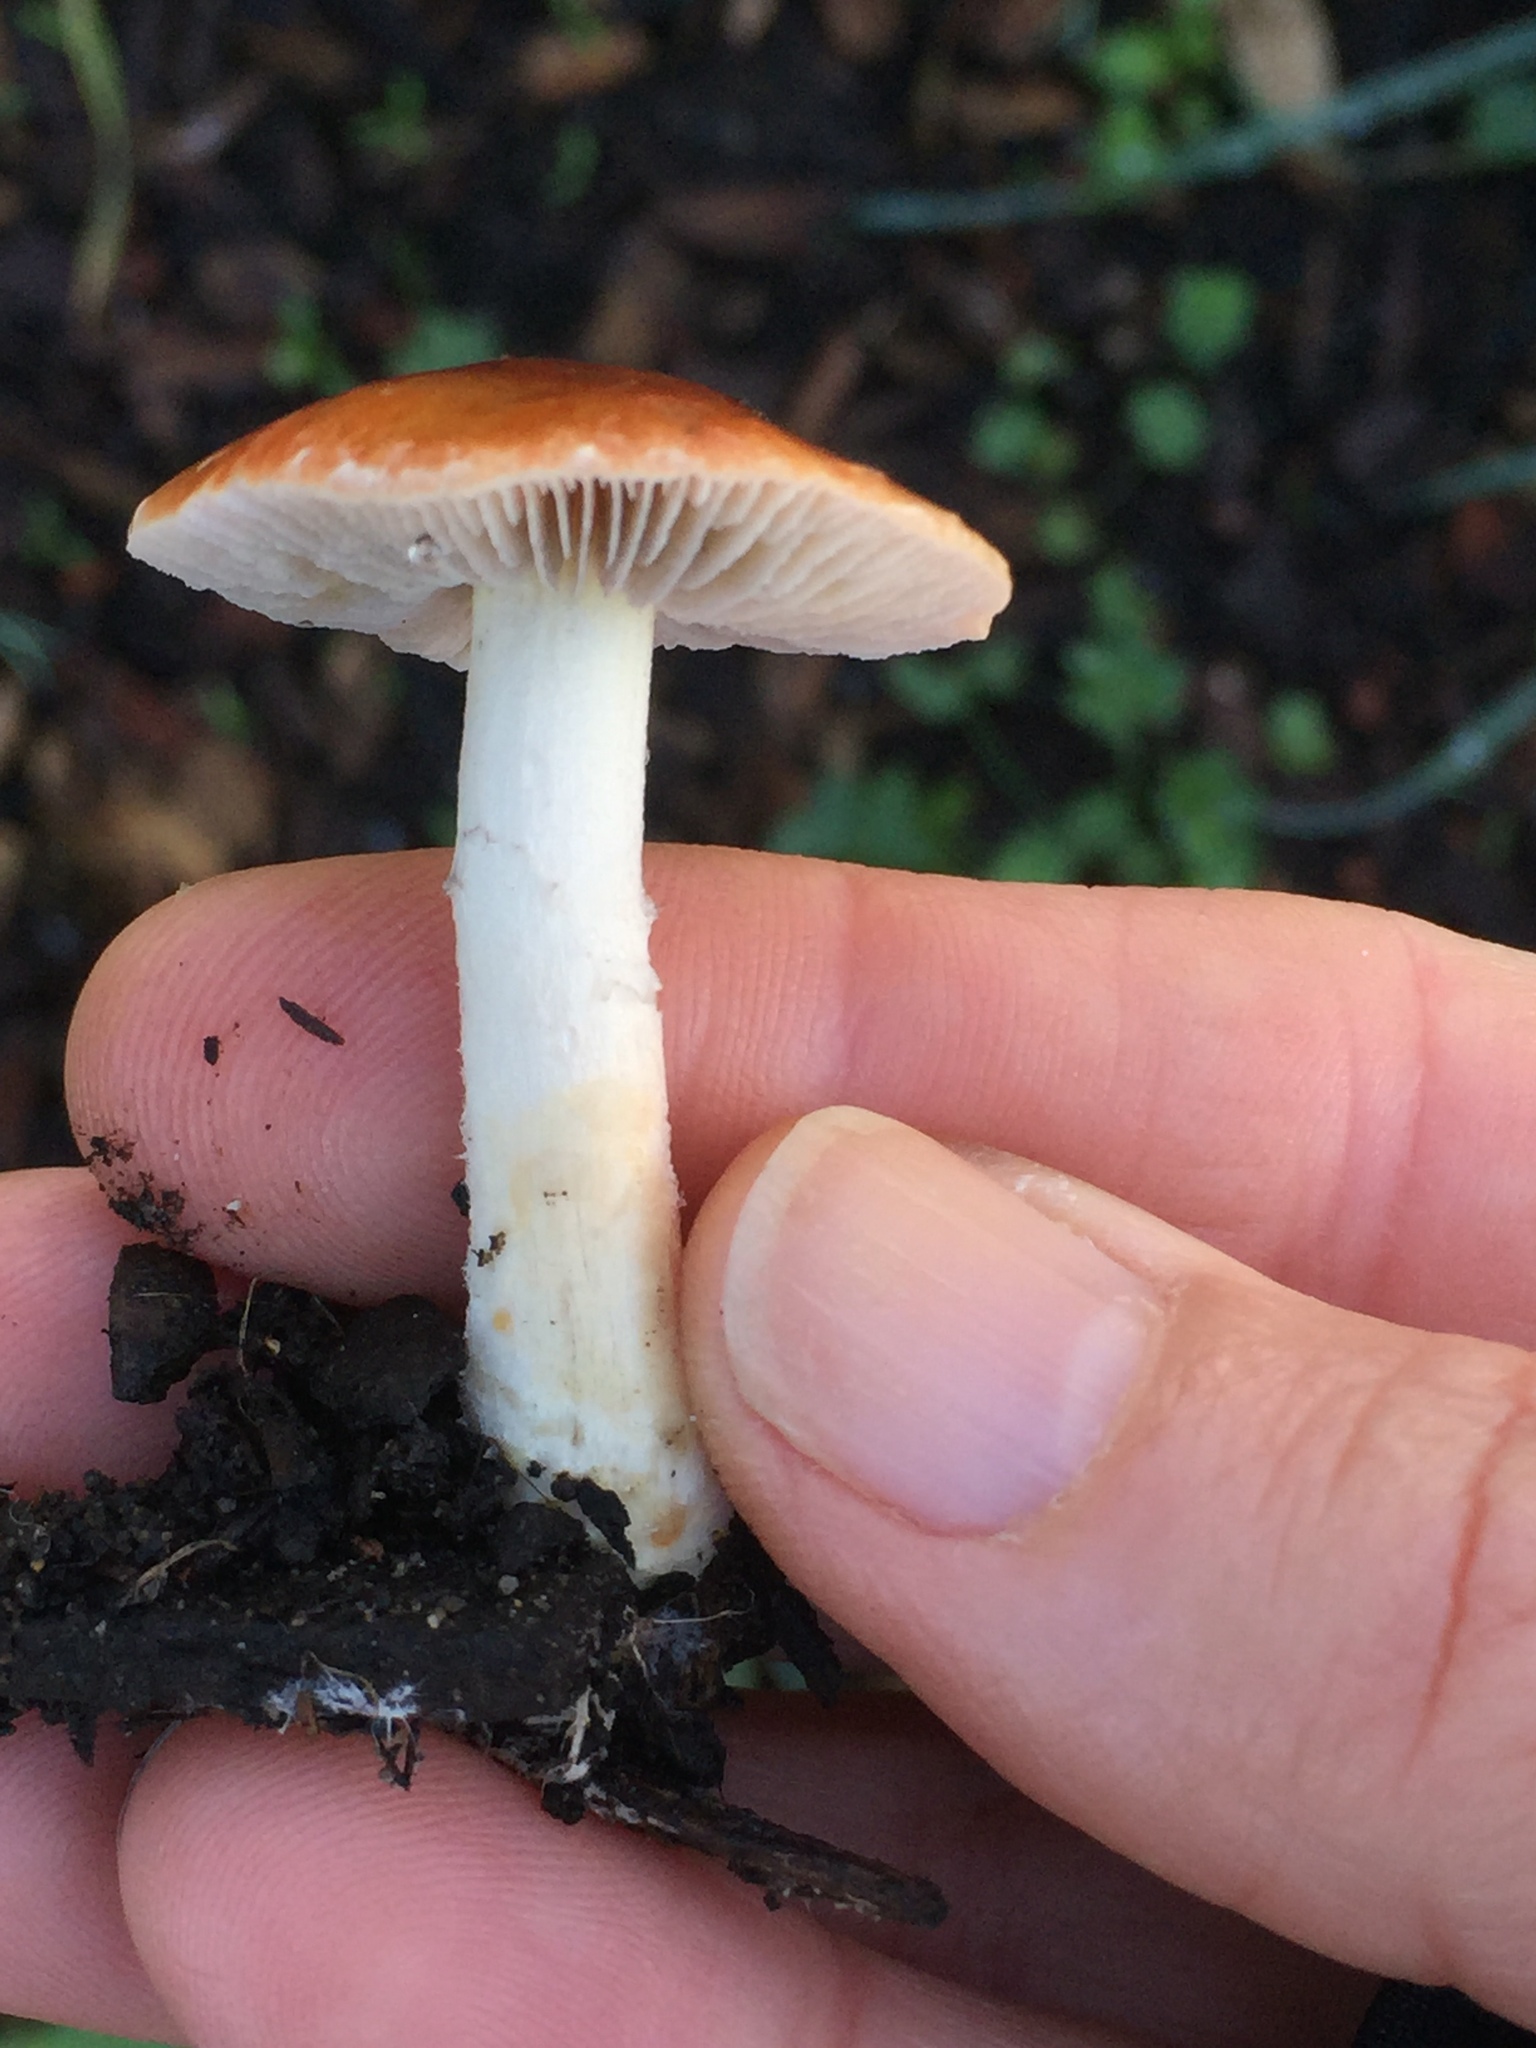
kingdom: Fungi
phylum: Basidiomycota
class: Agaricomycetes
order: Agaricales
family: Strophariaceae
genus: Leratiomyces
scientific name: Leratiomyces ceres
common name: Redlead roundhead
